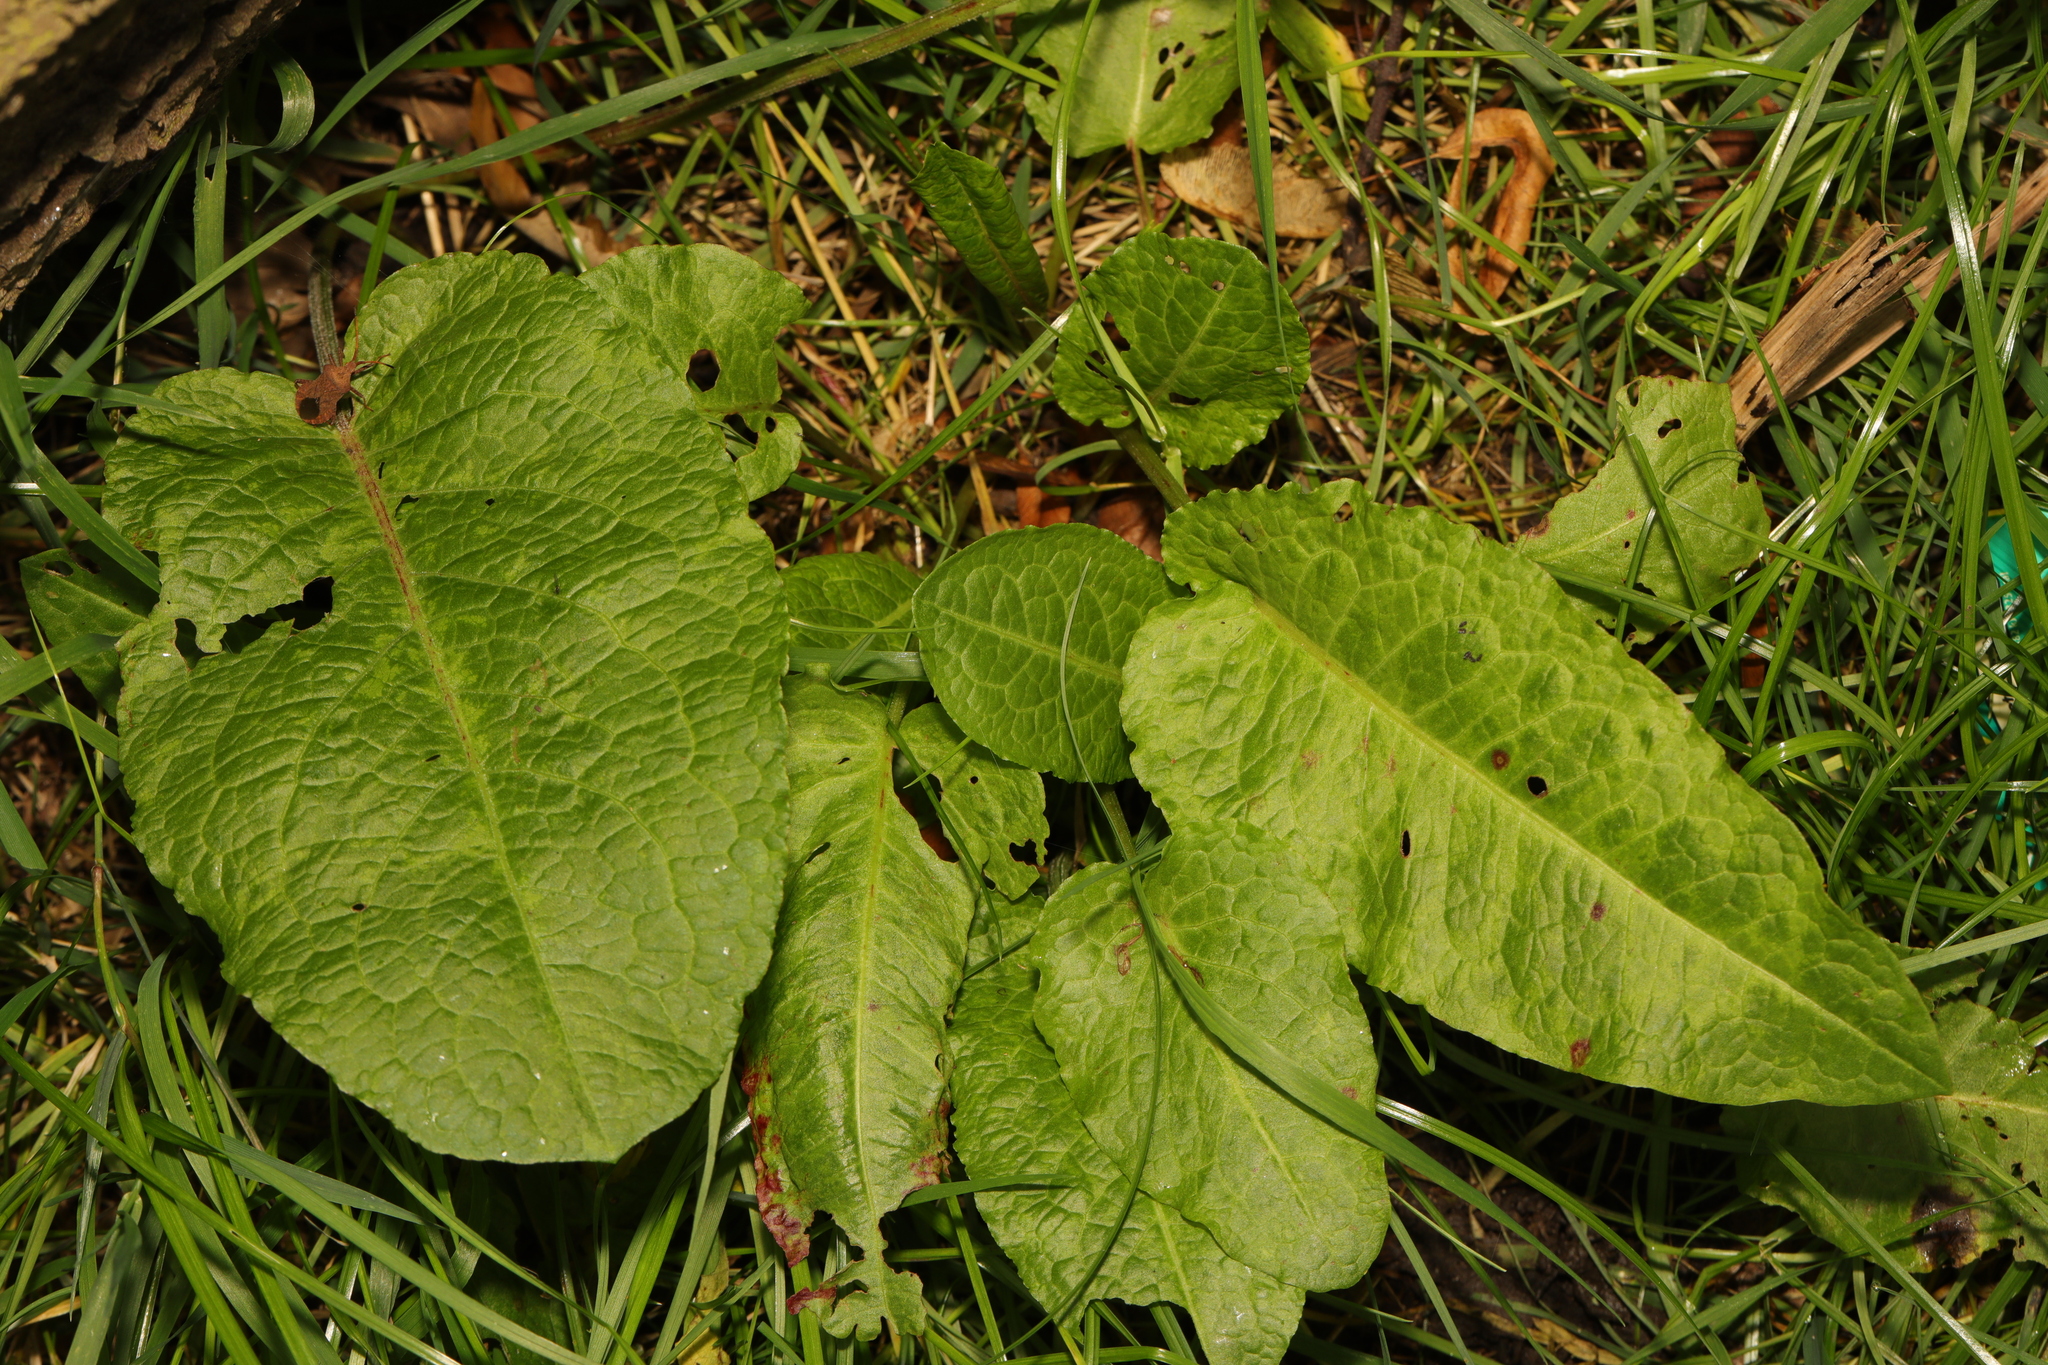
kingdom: Plantae
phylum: Tracheophyta
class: Magnoliopsida
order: Caryophyllales
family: Polygonaceae
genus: Rumex
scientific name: Rumex obtusifolius
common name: Bitter dock
